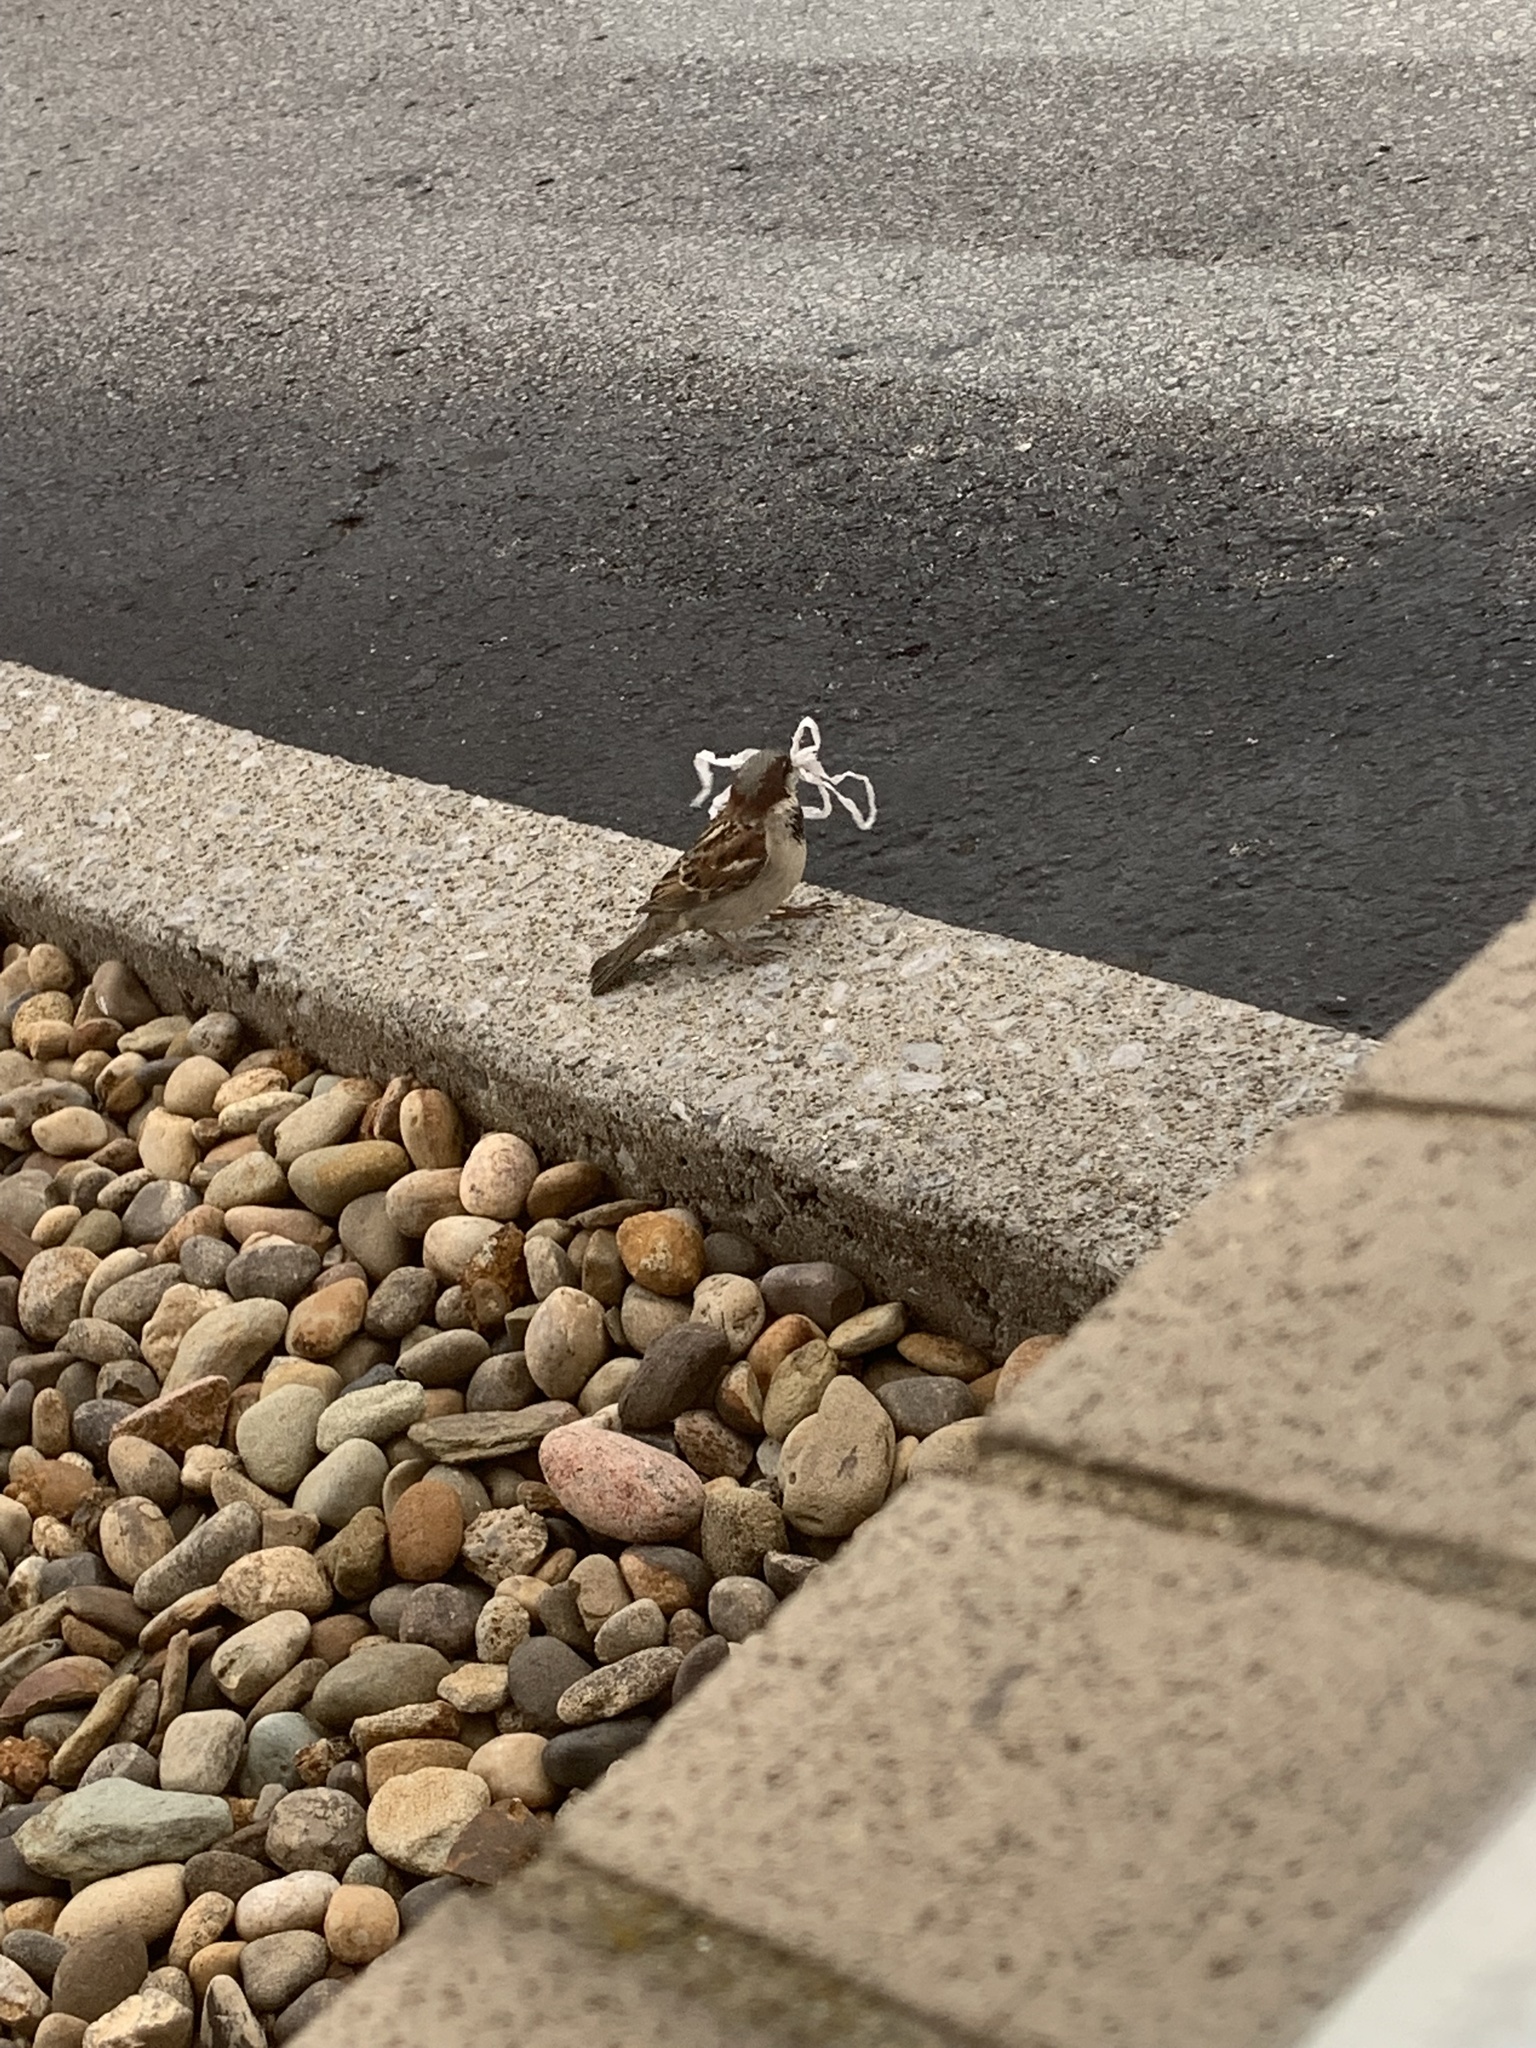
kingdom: Animalia
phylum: Chordata
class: Aves
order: Passeriformes
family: Passeridae
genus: Passer
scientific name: Passer domesticus
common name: House sparrow
